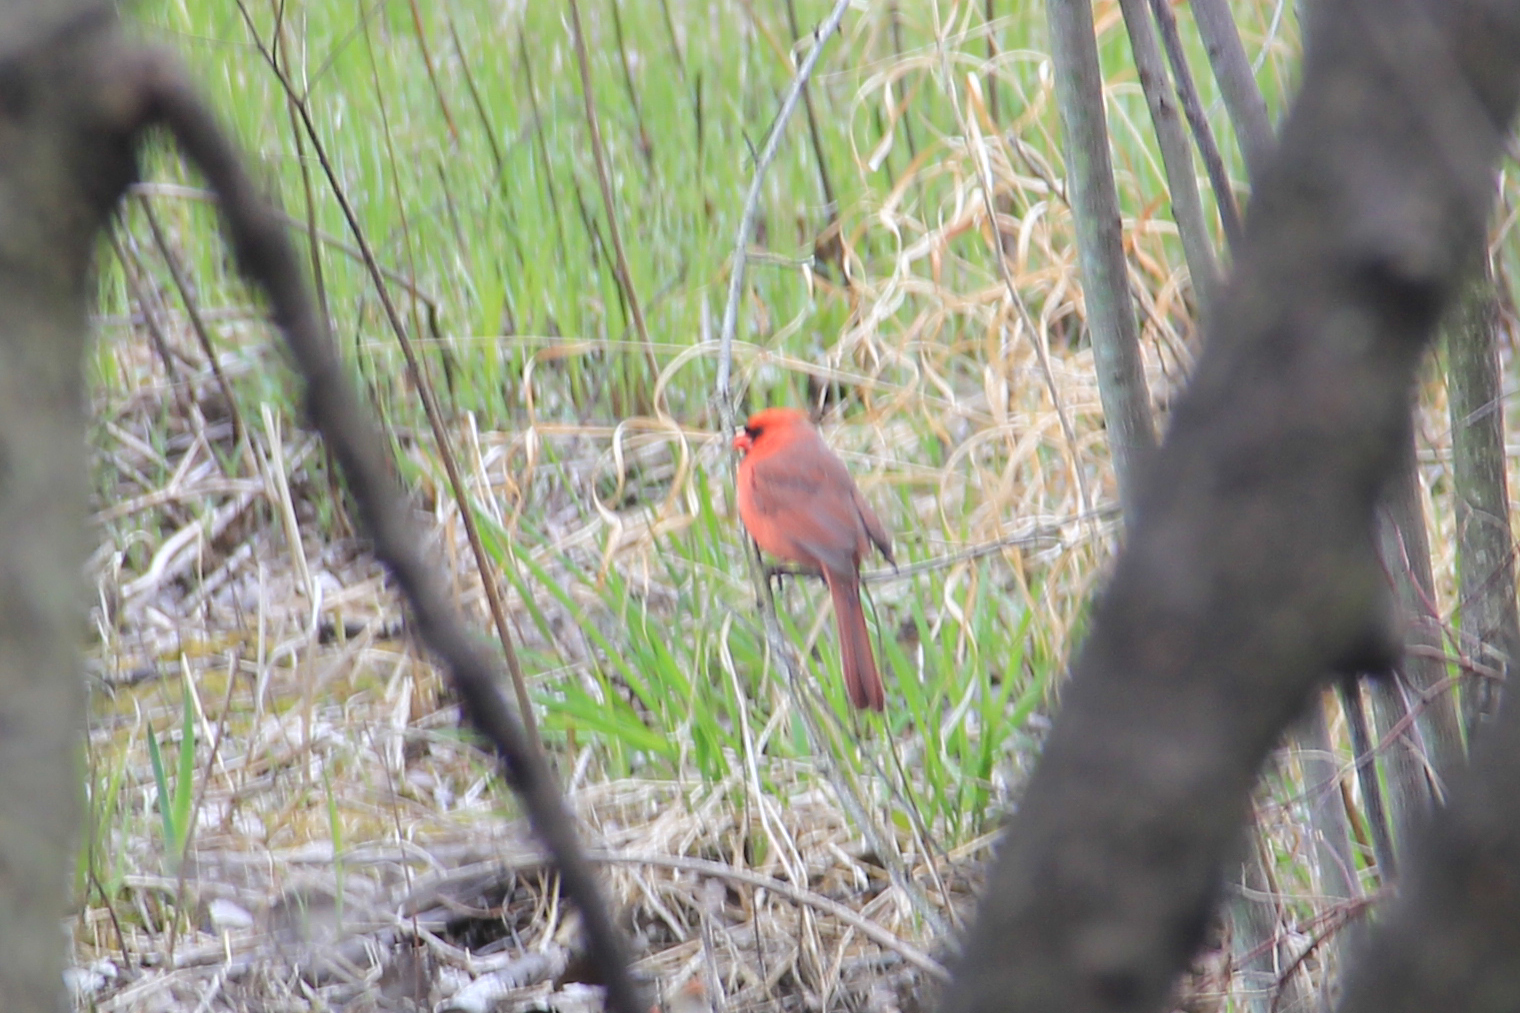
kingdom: Animalia
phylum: Chordata
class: Aves
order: Passeriformes
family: Cardinalidae
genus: Cardinalis
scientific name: Cardinalis cardinalis
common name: Northern cardinal
